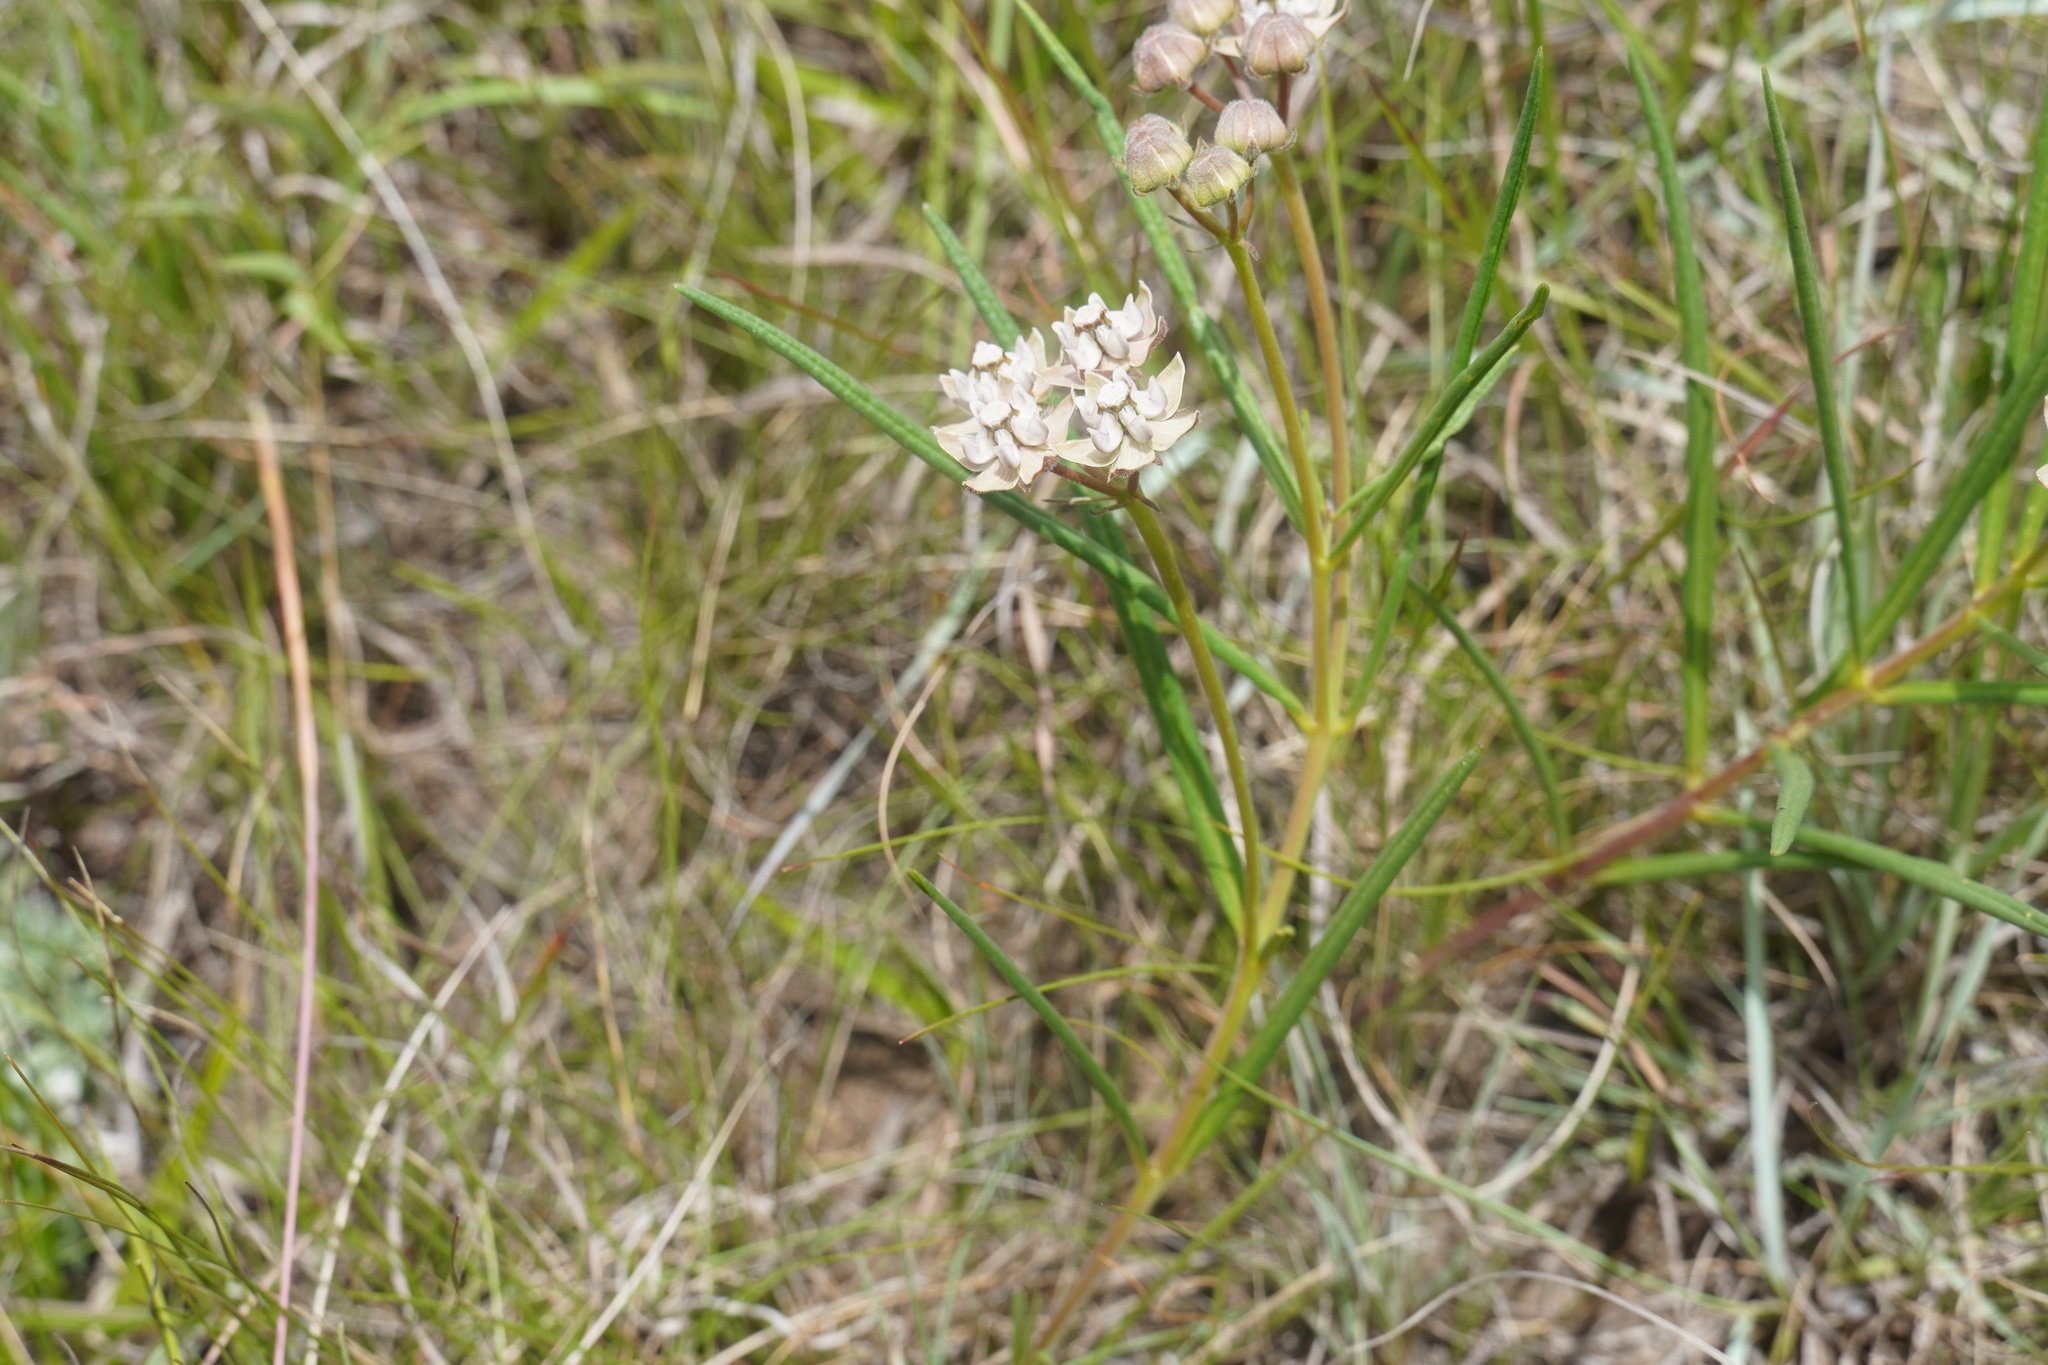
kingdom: Plantae
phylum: Tracheophyta
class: Magnoliopsida
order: Gentianales
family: Apocynaceae
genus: Asclepias
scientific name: Asclepias cucullata
